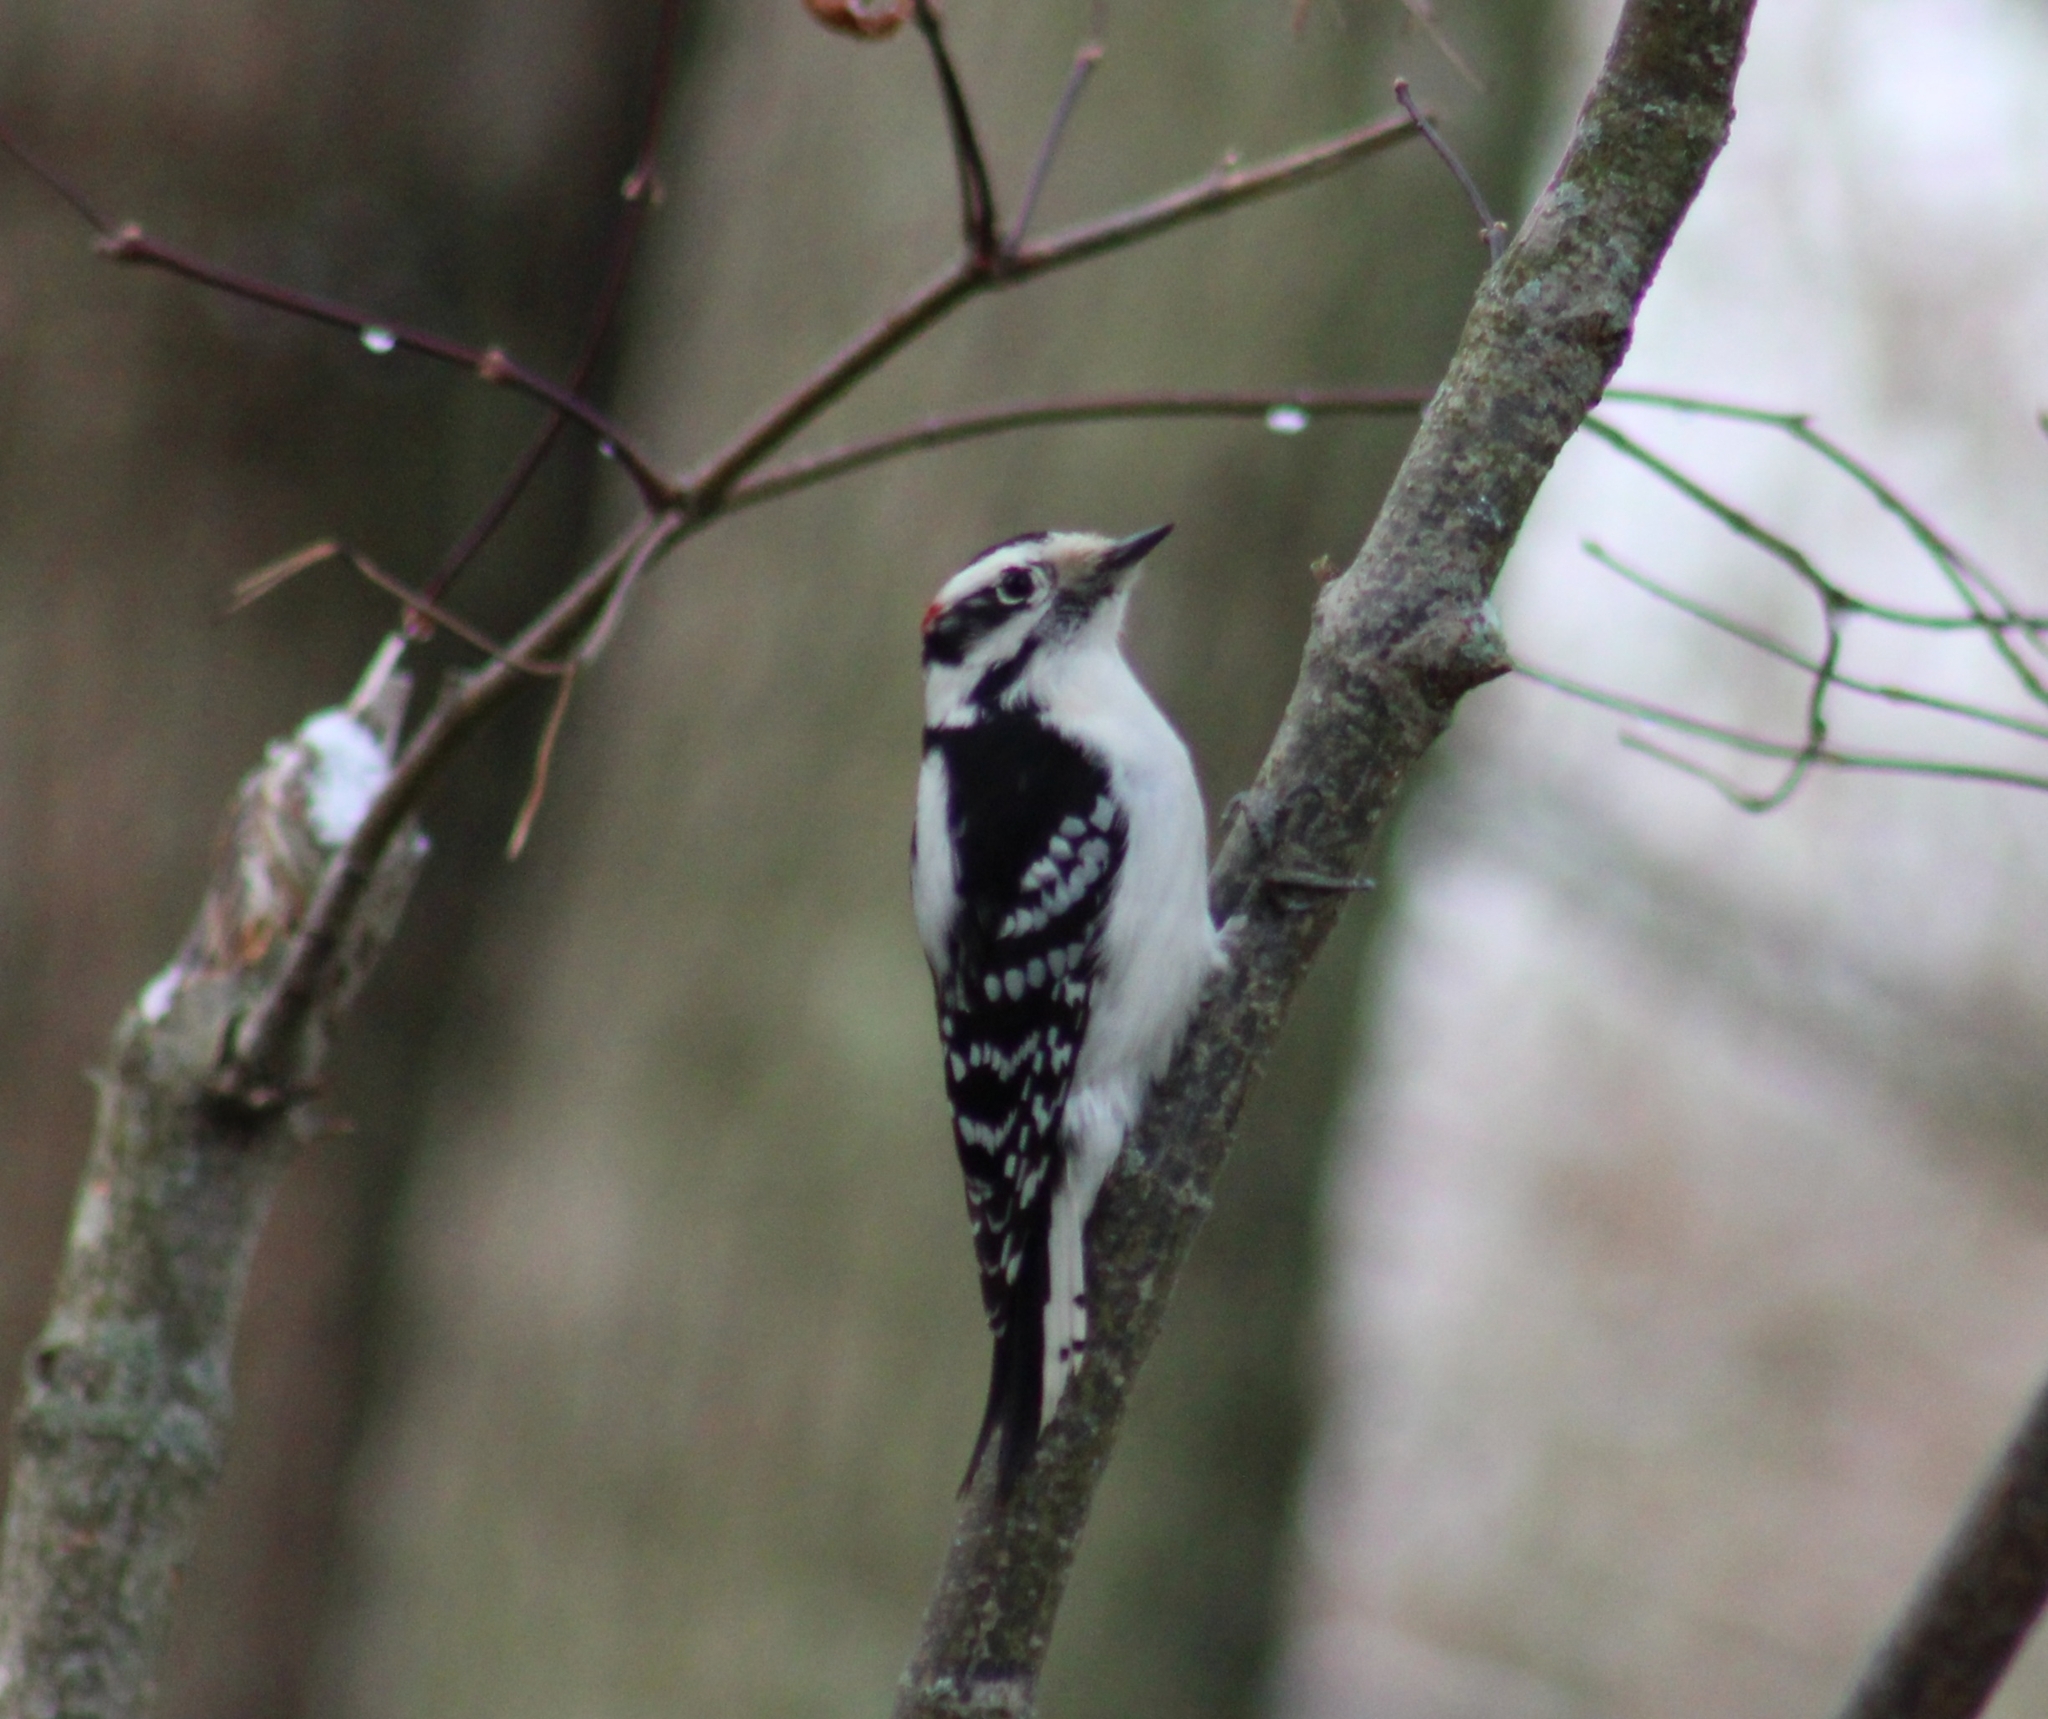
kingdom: Animalia
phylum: Chordata
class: Aves
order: Piciformes
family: Picidae
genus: Dryobates
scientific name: Dryobates pubescens
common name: Downy woodpecker
